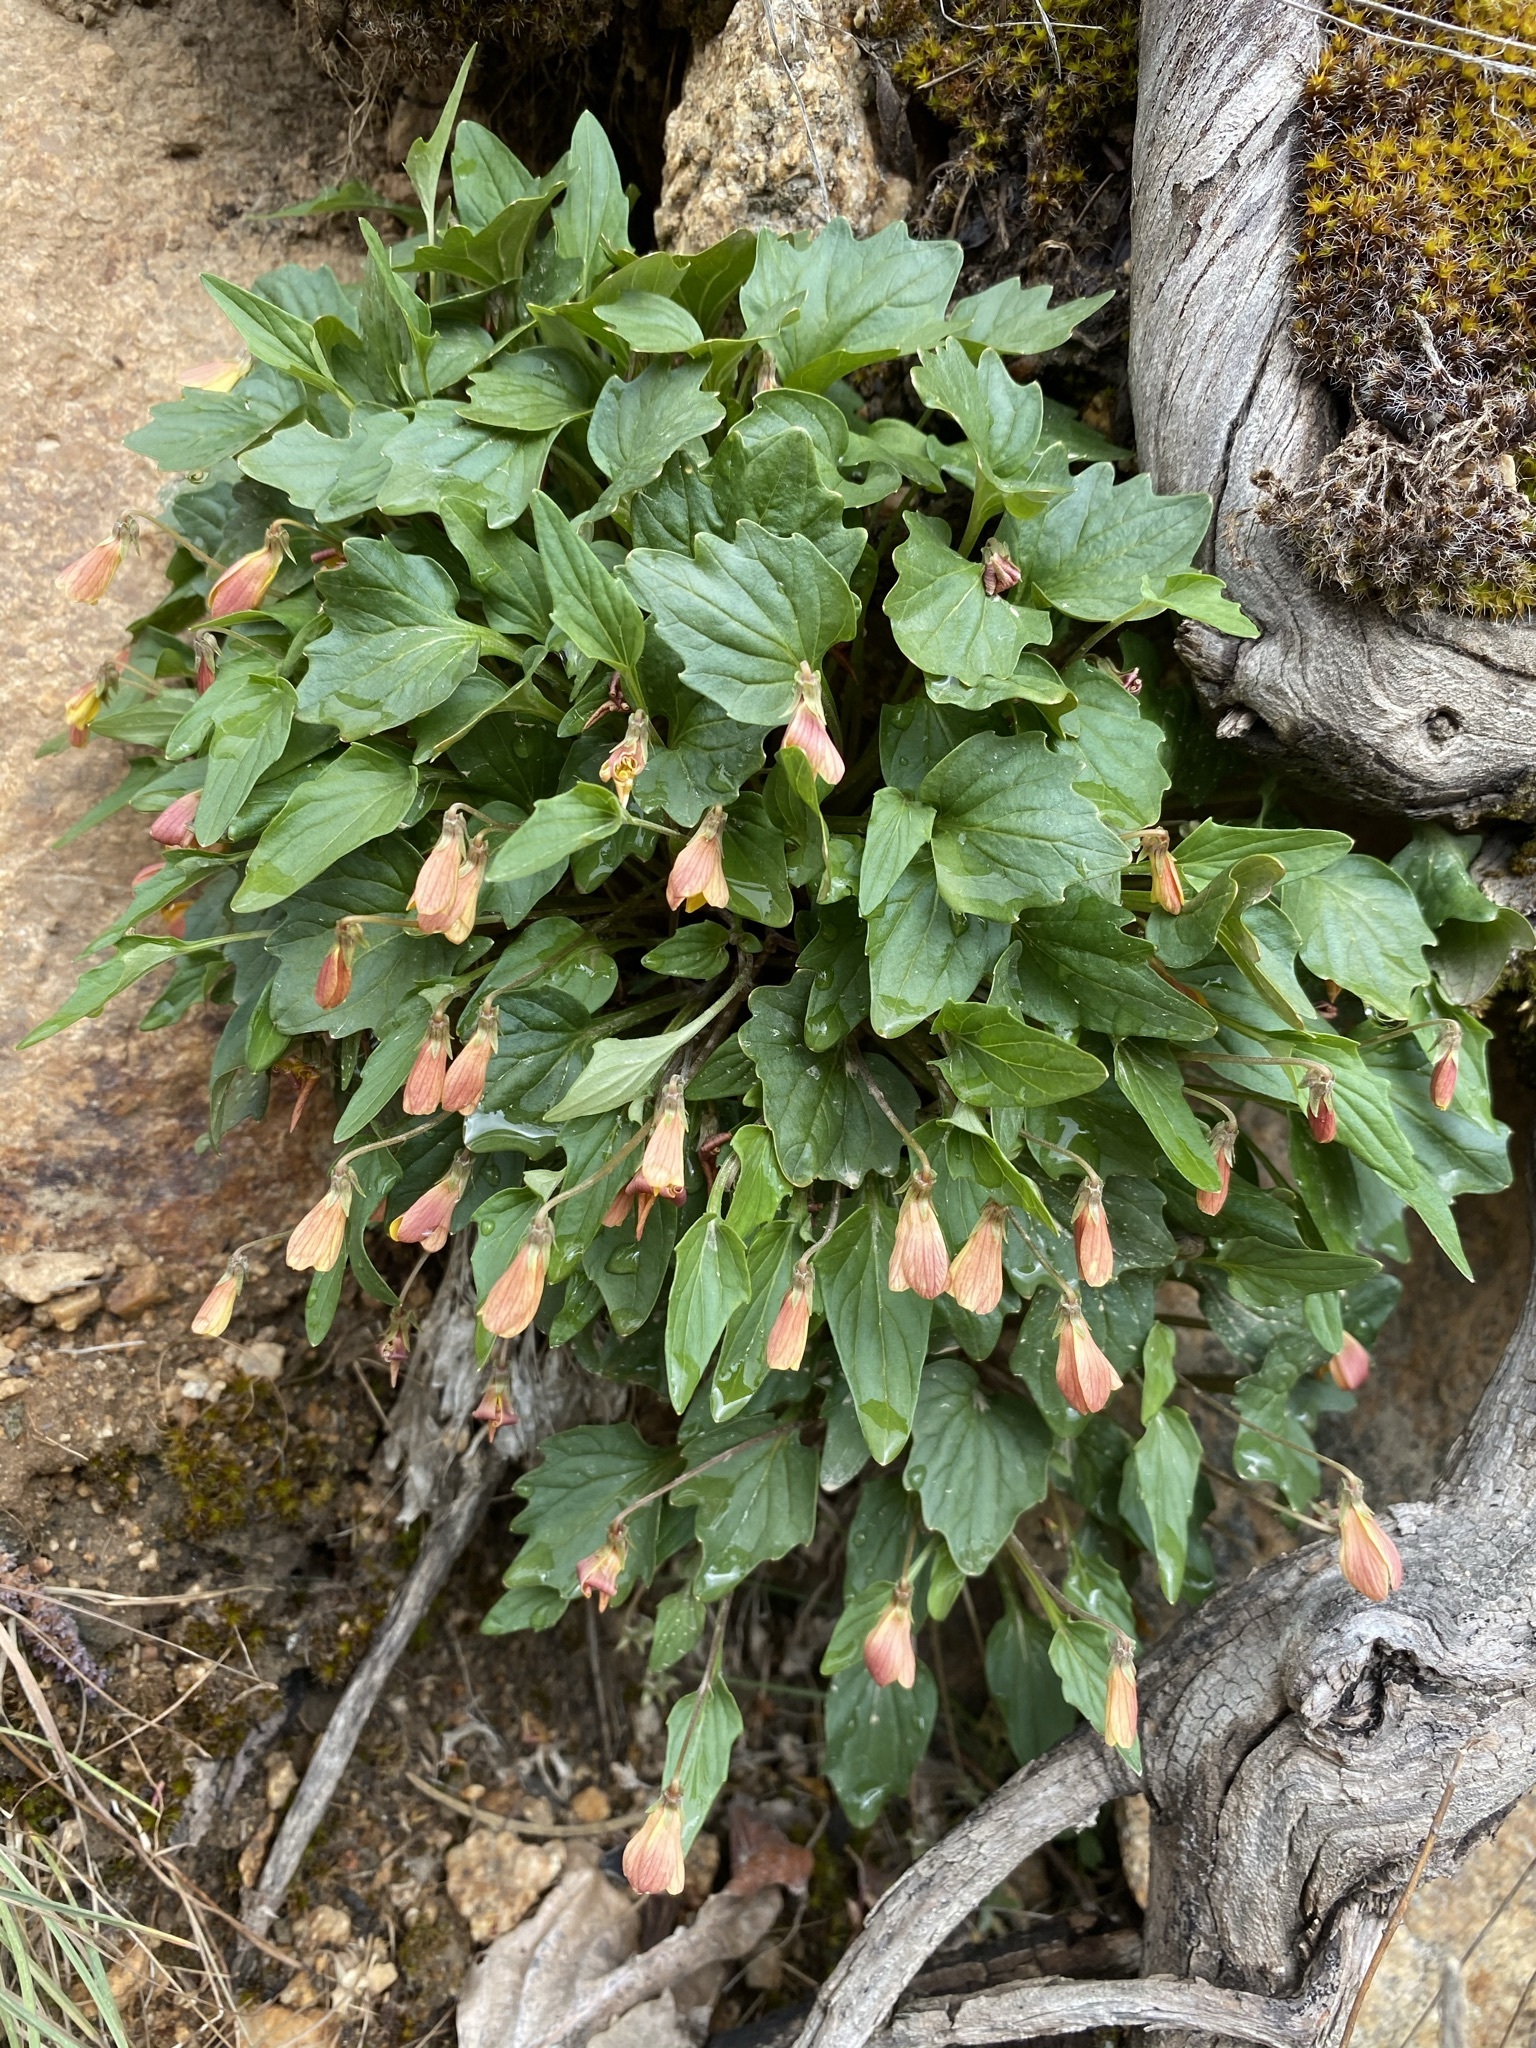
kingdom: Plantae
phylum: Tracheophyta
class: Magnoliopsida
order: Malpighiales
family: Violaceae
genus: Viola
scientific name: Viola purpurea
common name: Pine violet
